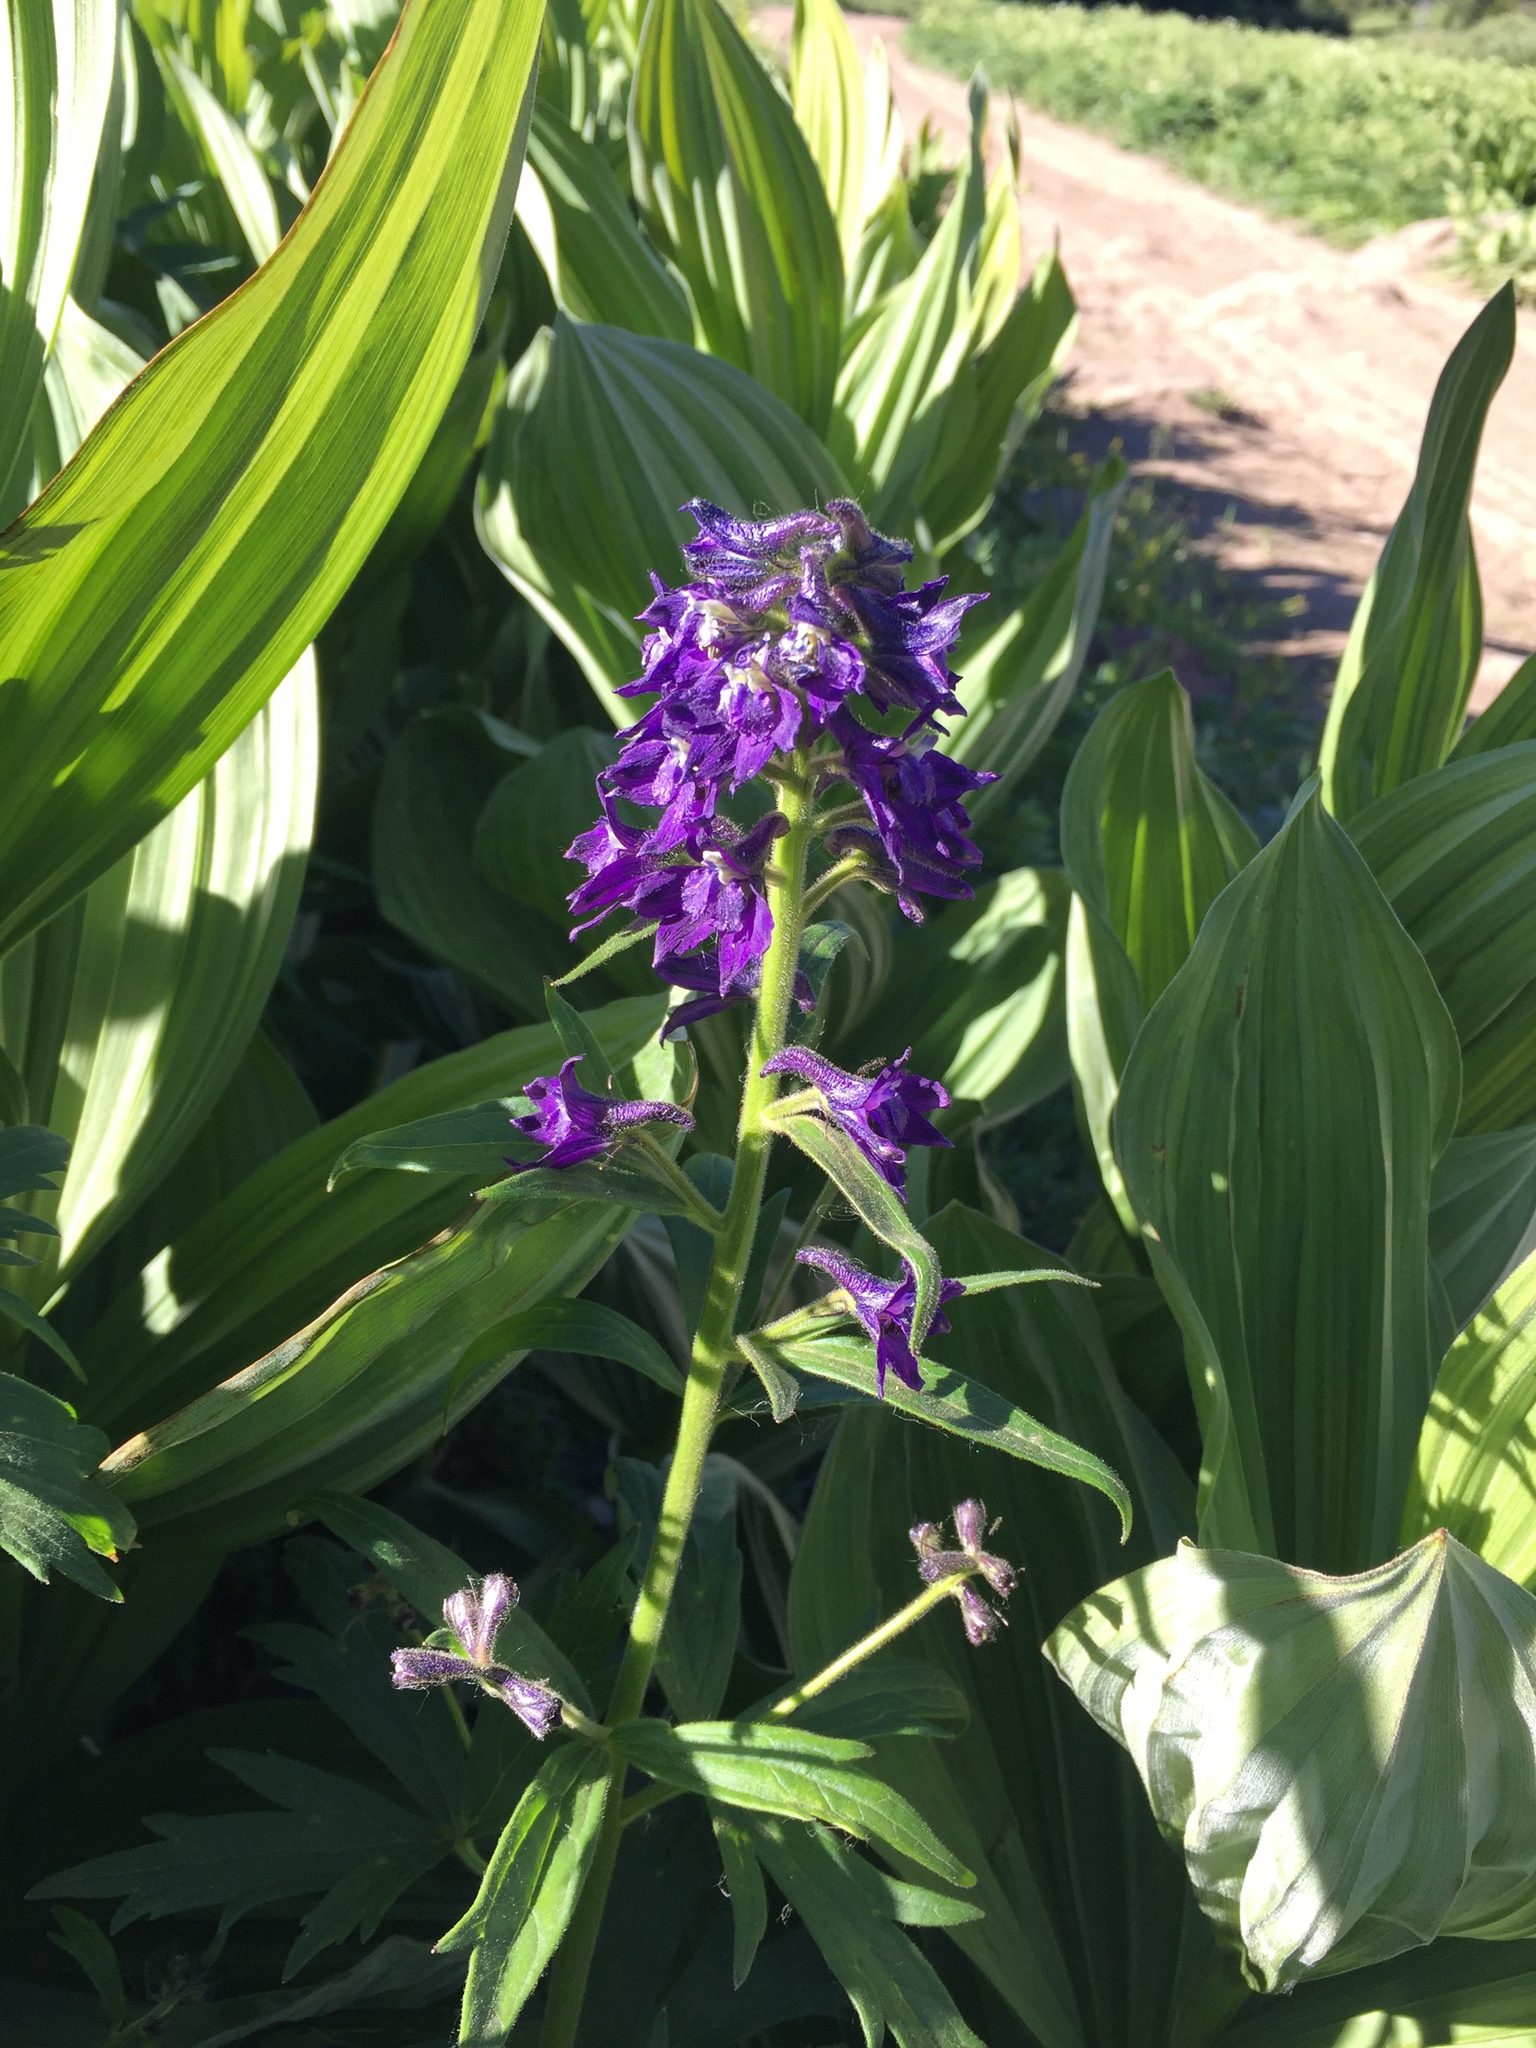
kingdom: Plantae
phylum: Tracheophyta
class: Magnoliopsida
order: Ranunculales
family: Ranunculaceae
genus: Delphinium
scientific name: Delphinium barbeyi
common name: Subalpine larkspur
